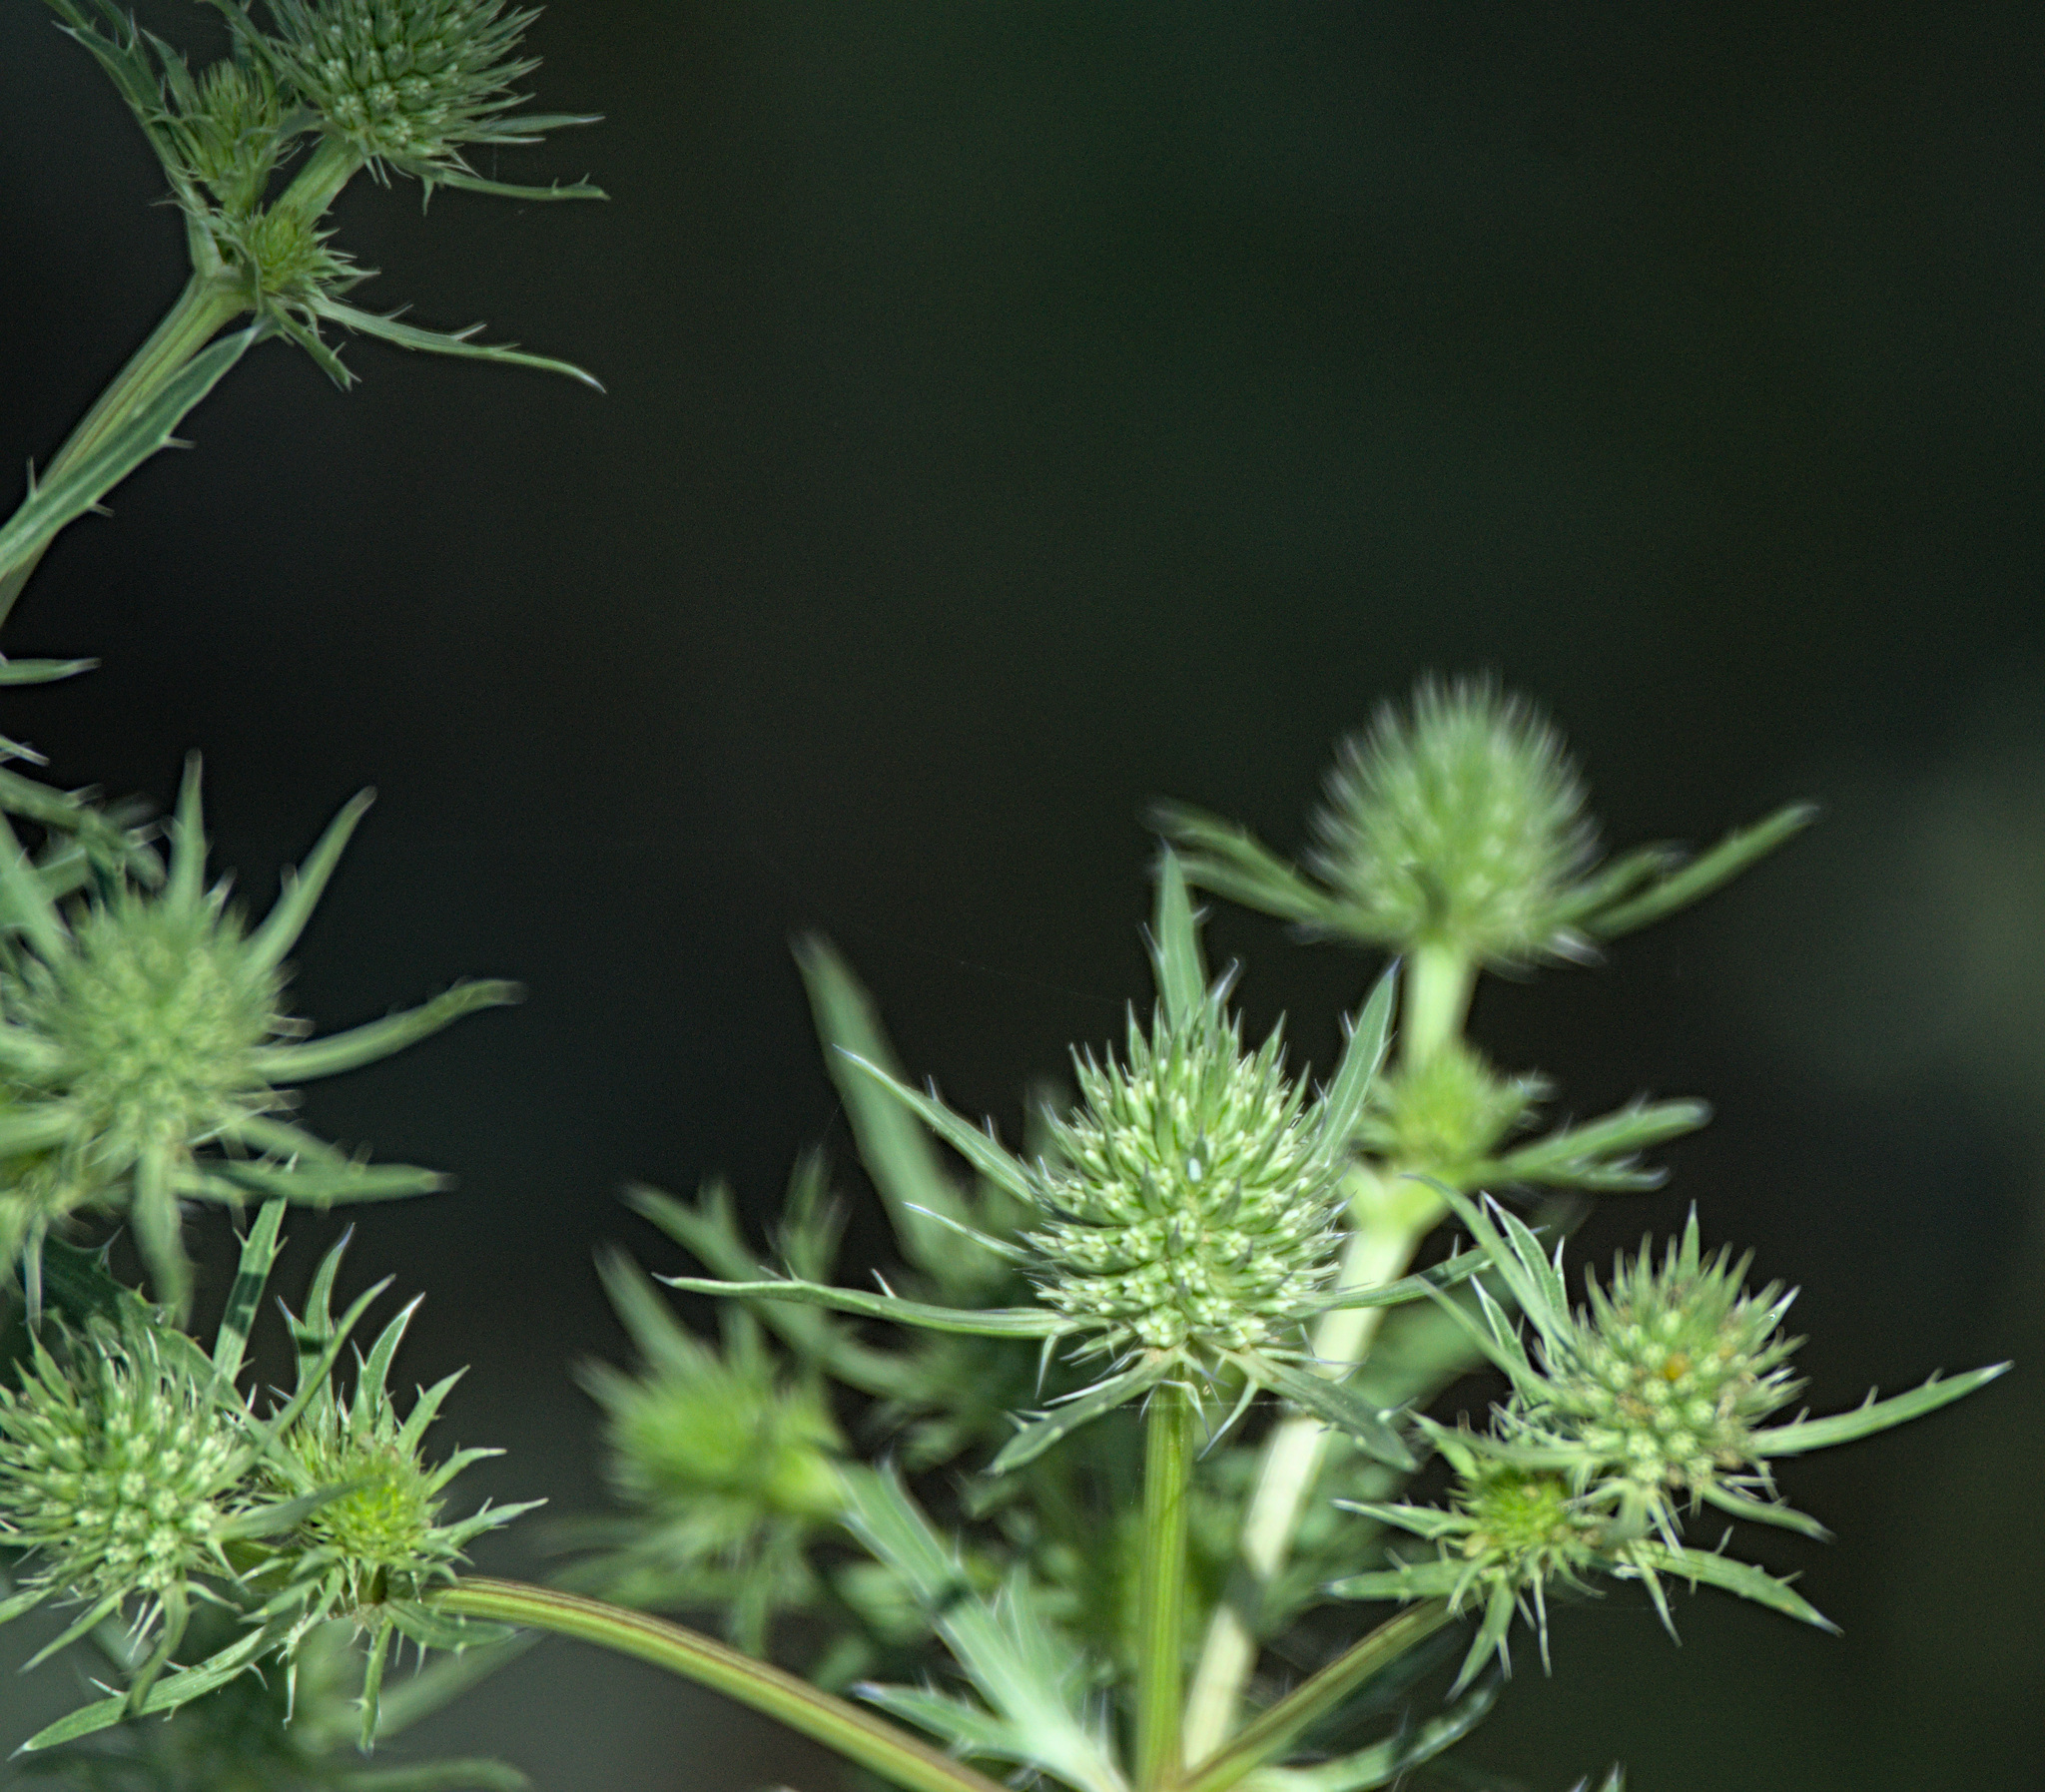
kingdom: Plantae
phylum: Tracheophyta
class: Magnoliopsida
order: Apiales
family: Apiaceae
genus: Eryngium
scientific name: Eryngium planum
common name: Blue eryngo
